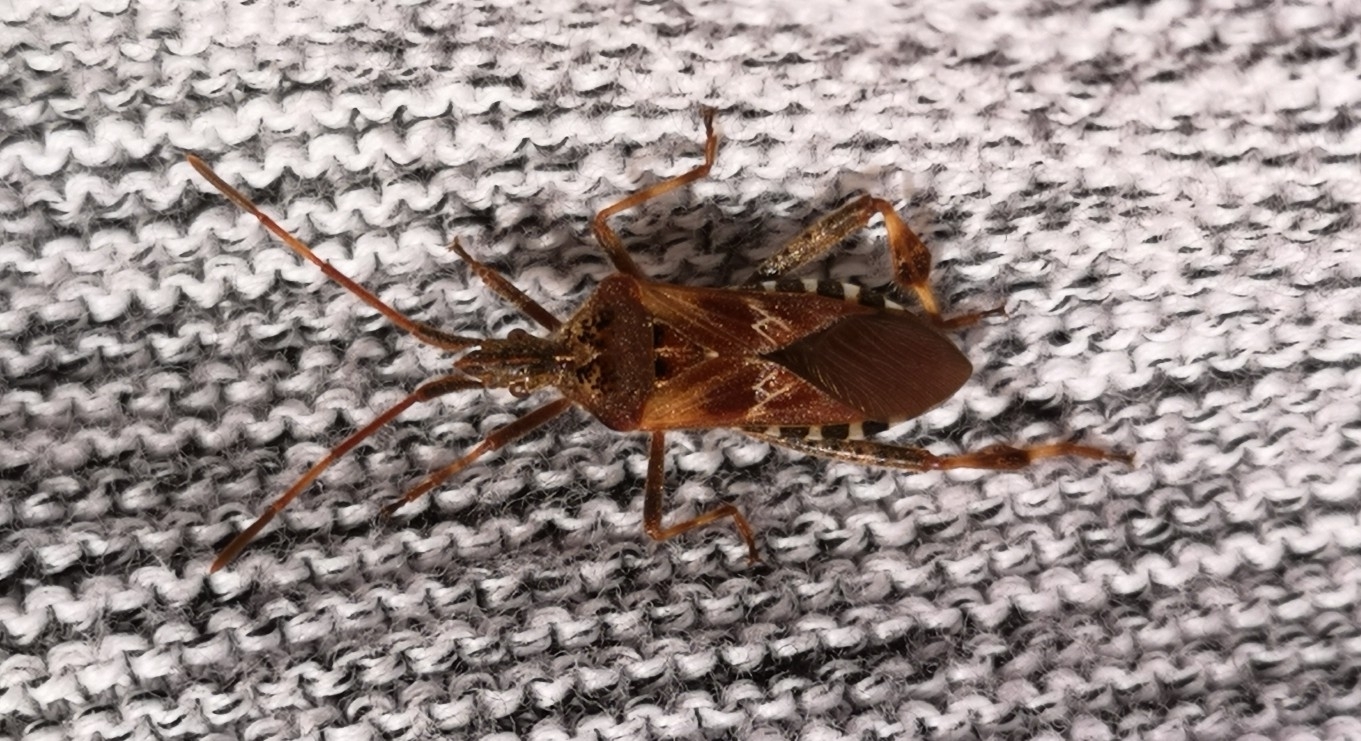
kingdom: Animalia
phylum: Arthropoda
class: Insecta
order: Hemiptera
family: Coreidae
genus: Leptoglossus
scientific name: Leptoglossus occidentalis
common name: Western conifer-seed bug
